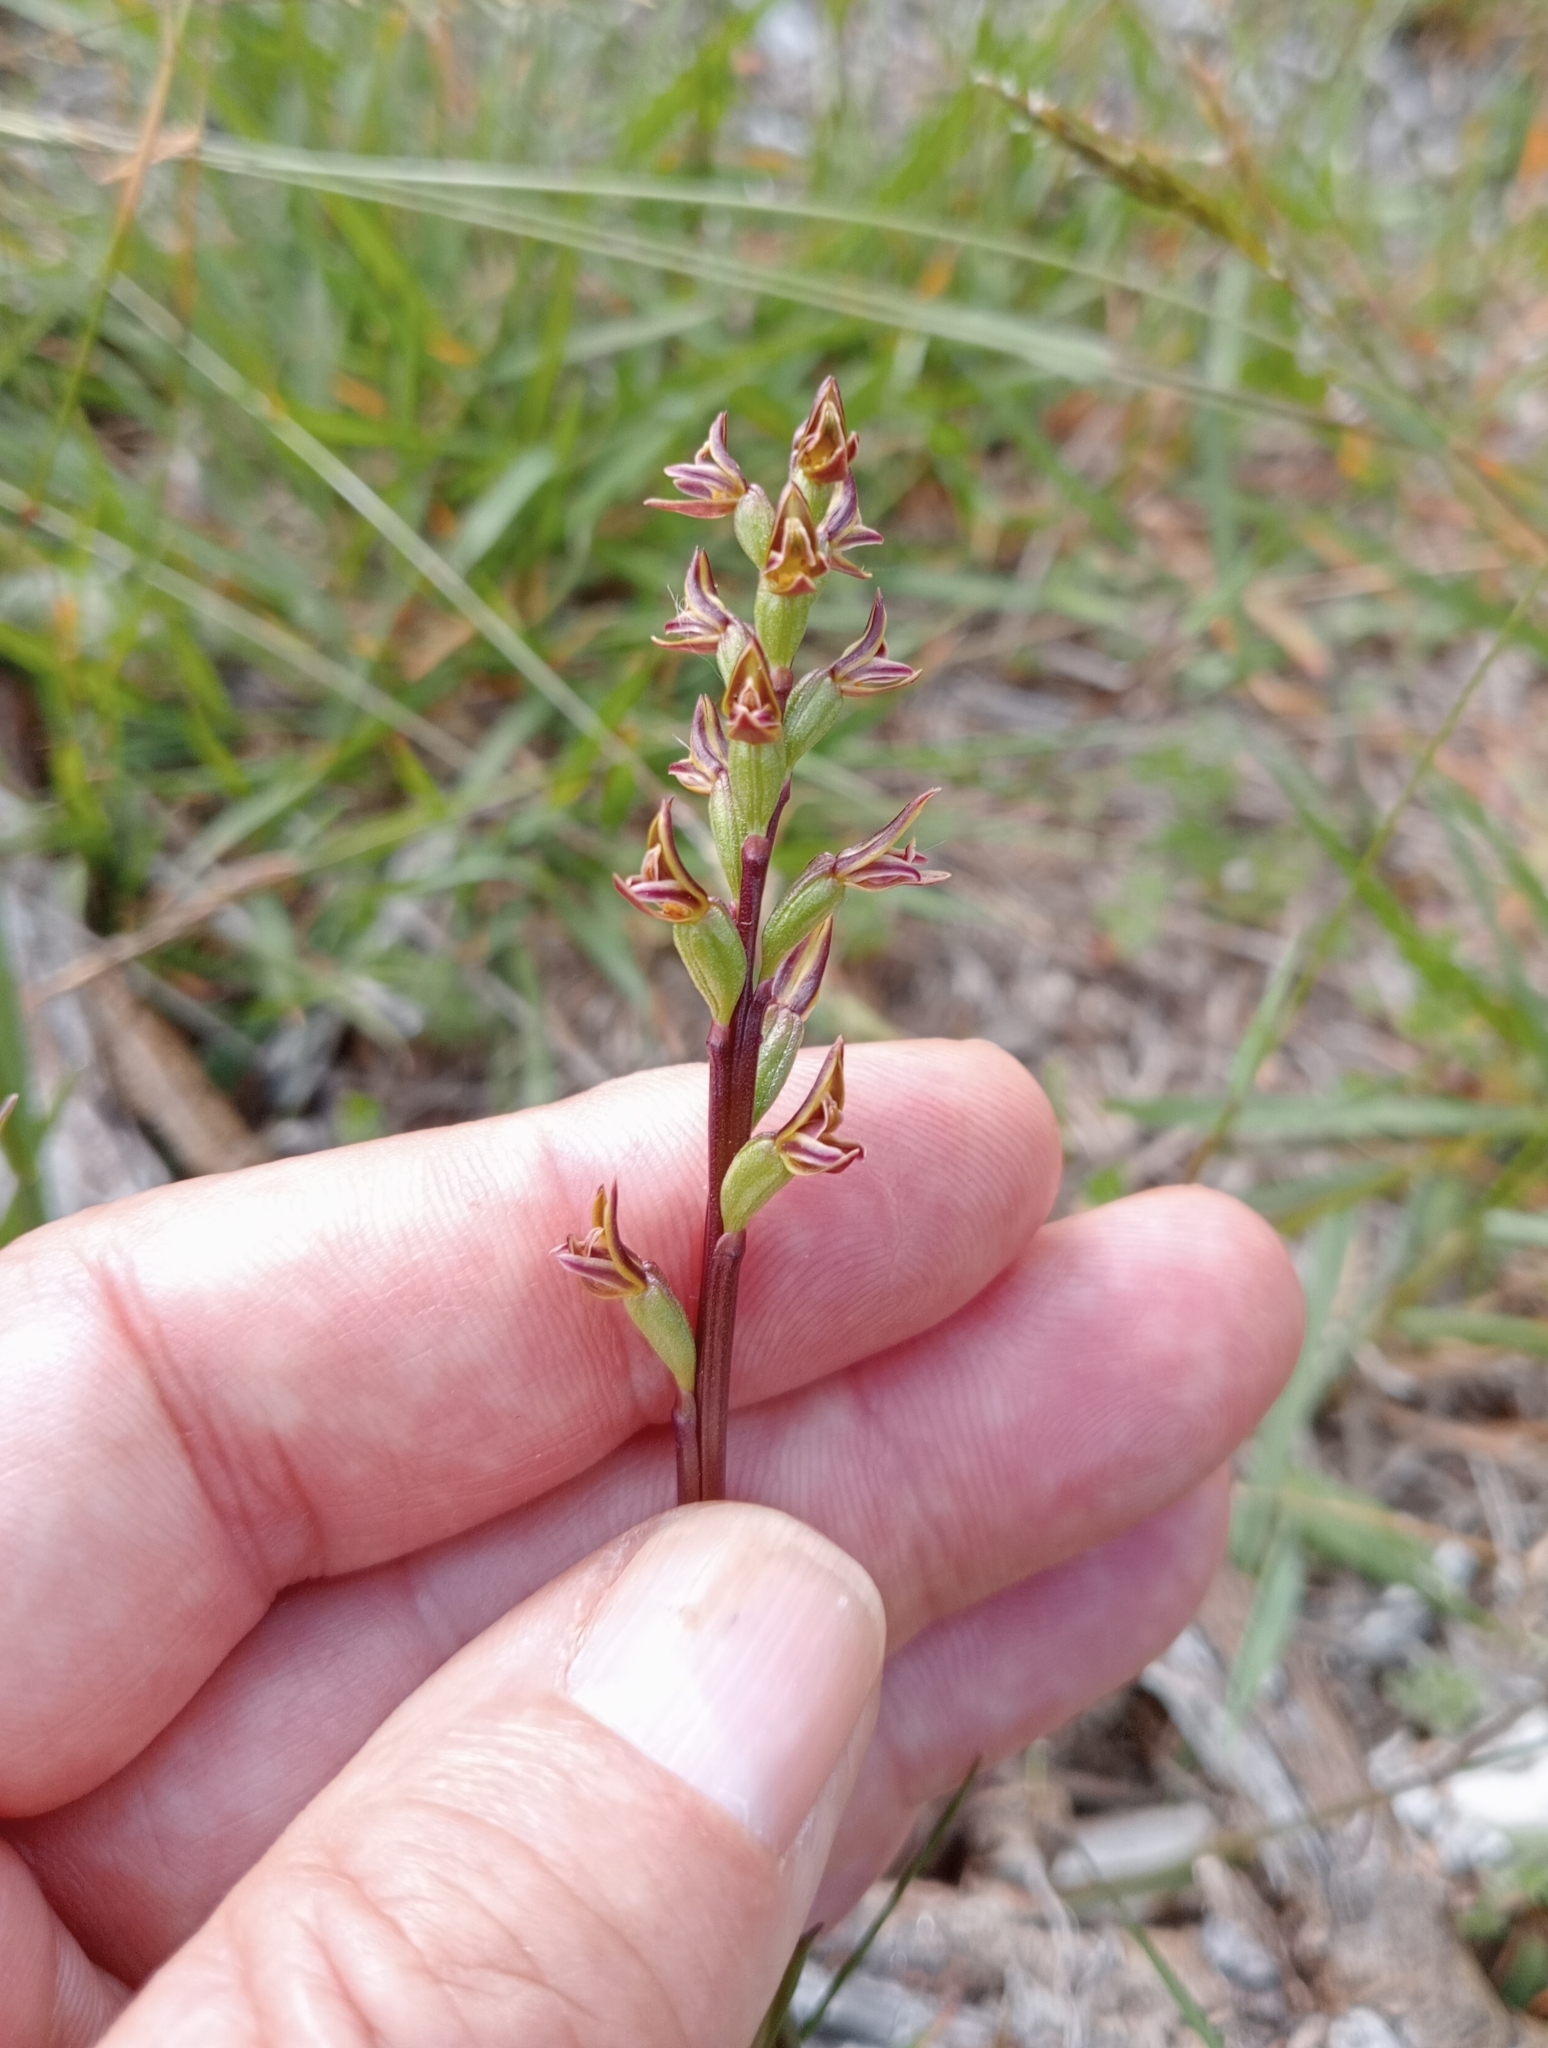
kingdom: Plantae
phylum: Tracheophyta
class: Liliopsida
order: Asparagales
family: Orchidaceae
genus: Prasophyllum
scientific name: Prasophyllum colensoi
